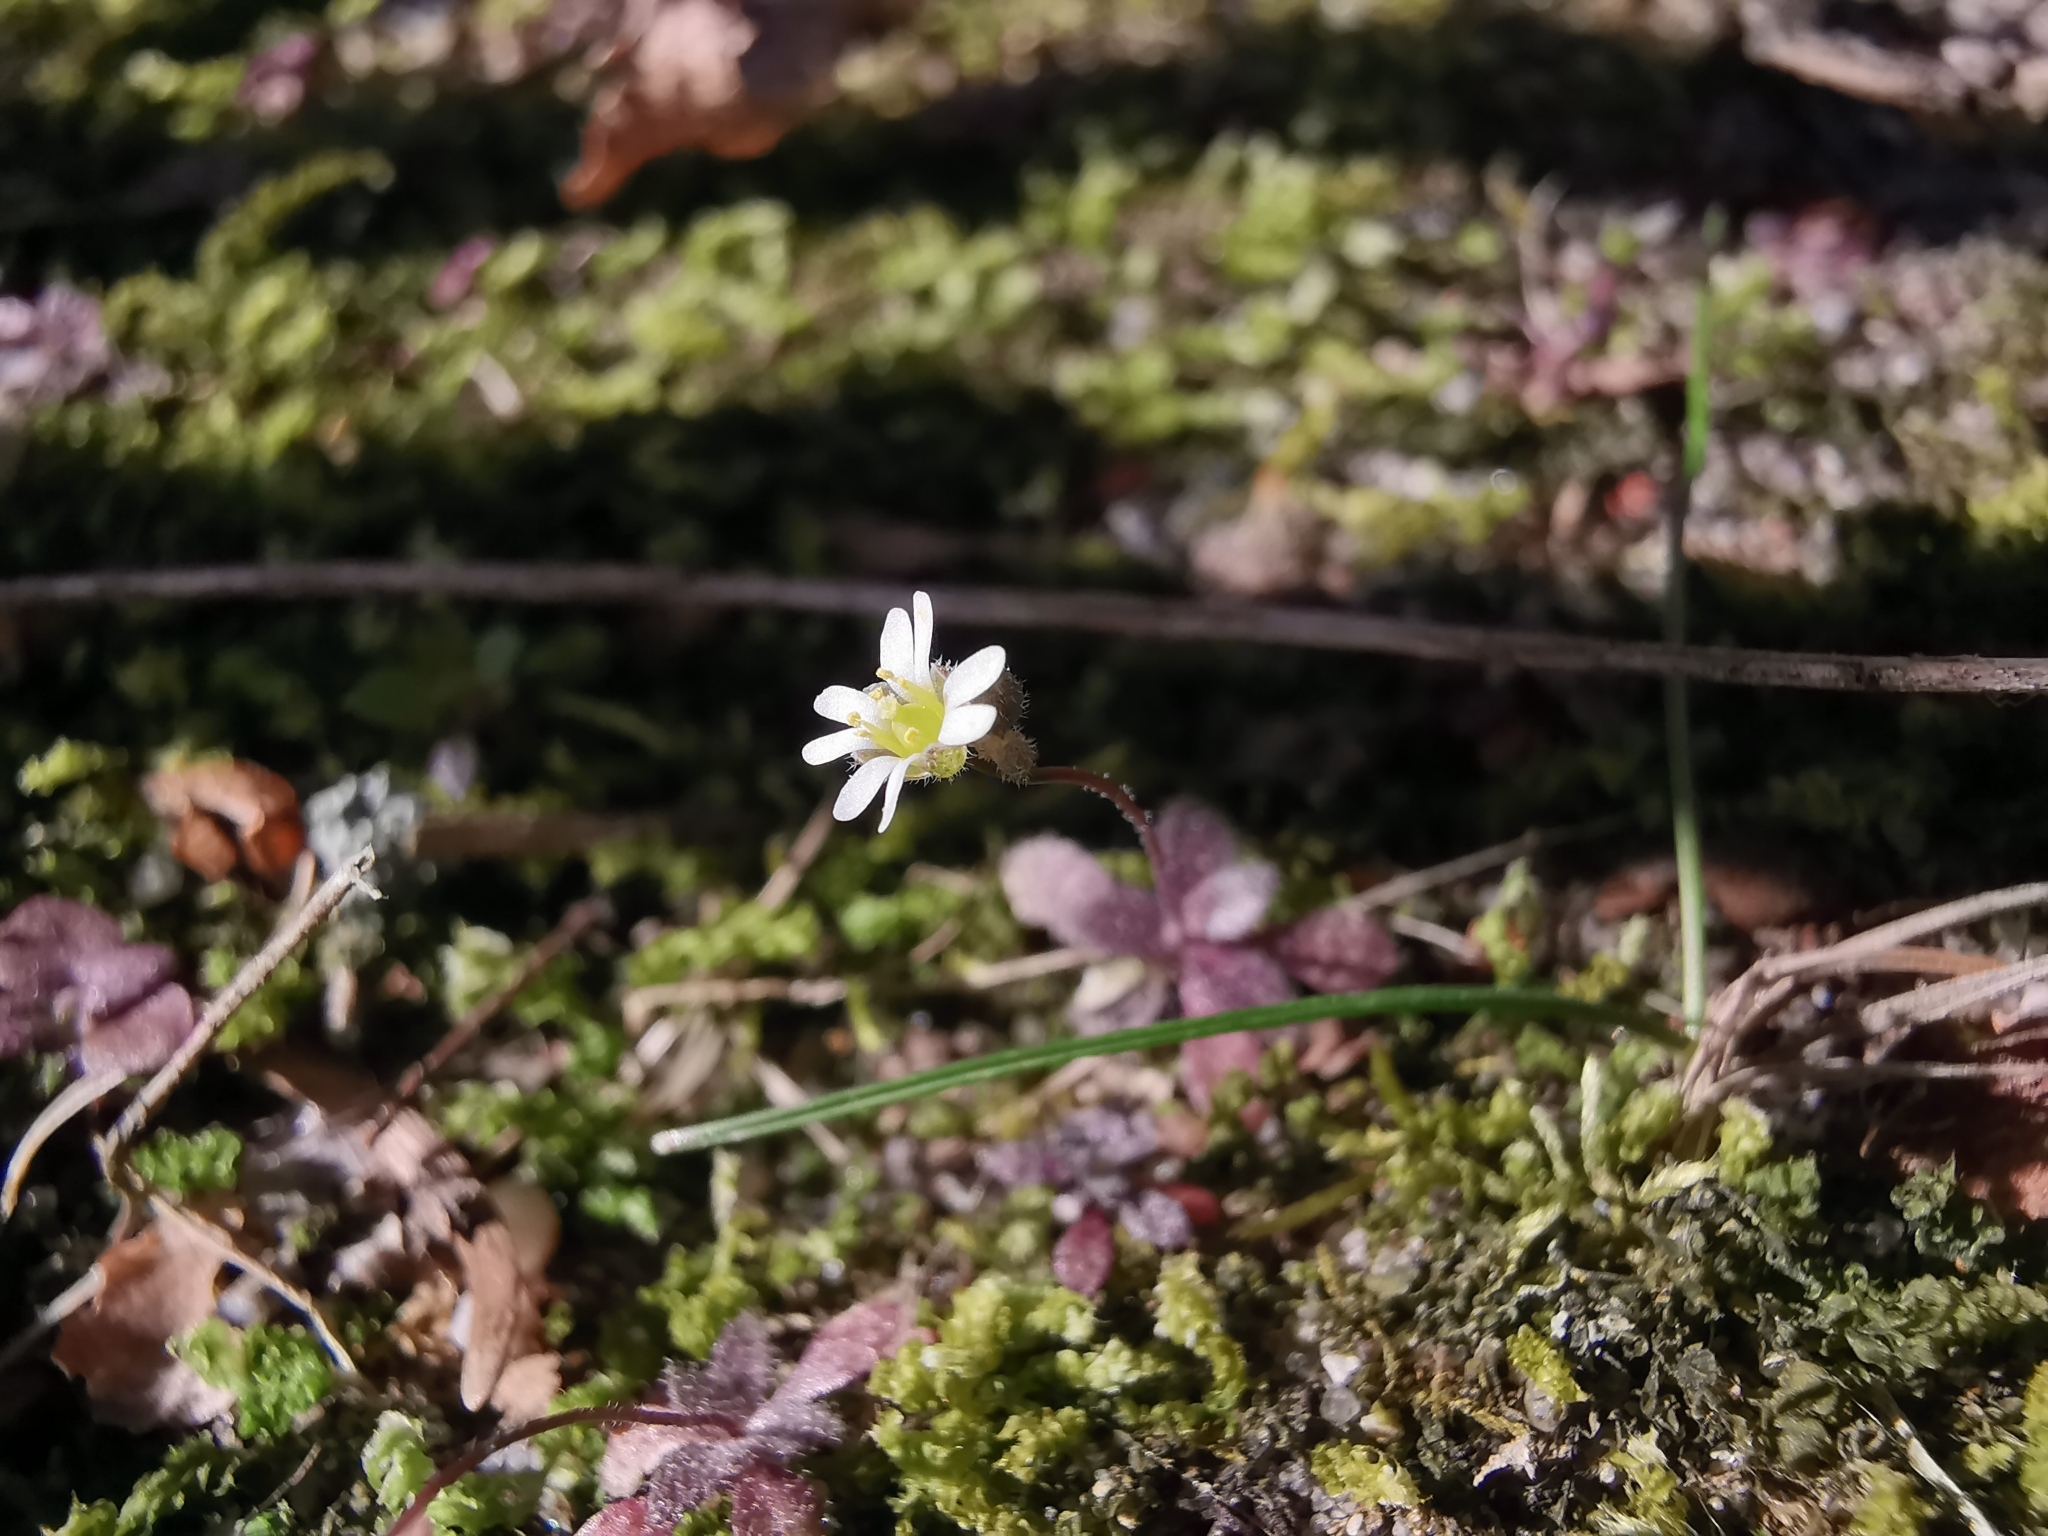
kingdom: Plantae
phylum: Tracheophyta
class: Magnoliopsida
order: Brassicales
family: Brassicaceae
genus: Draba
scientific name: Draba verna
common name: Spring draba
